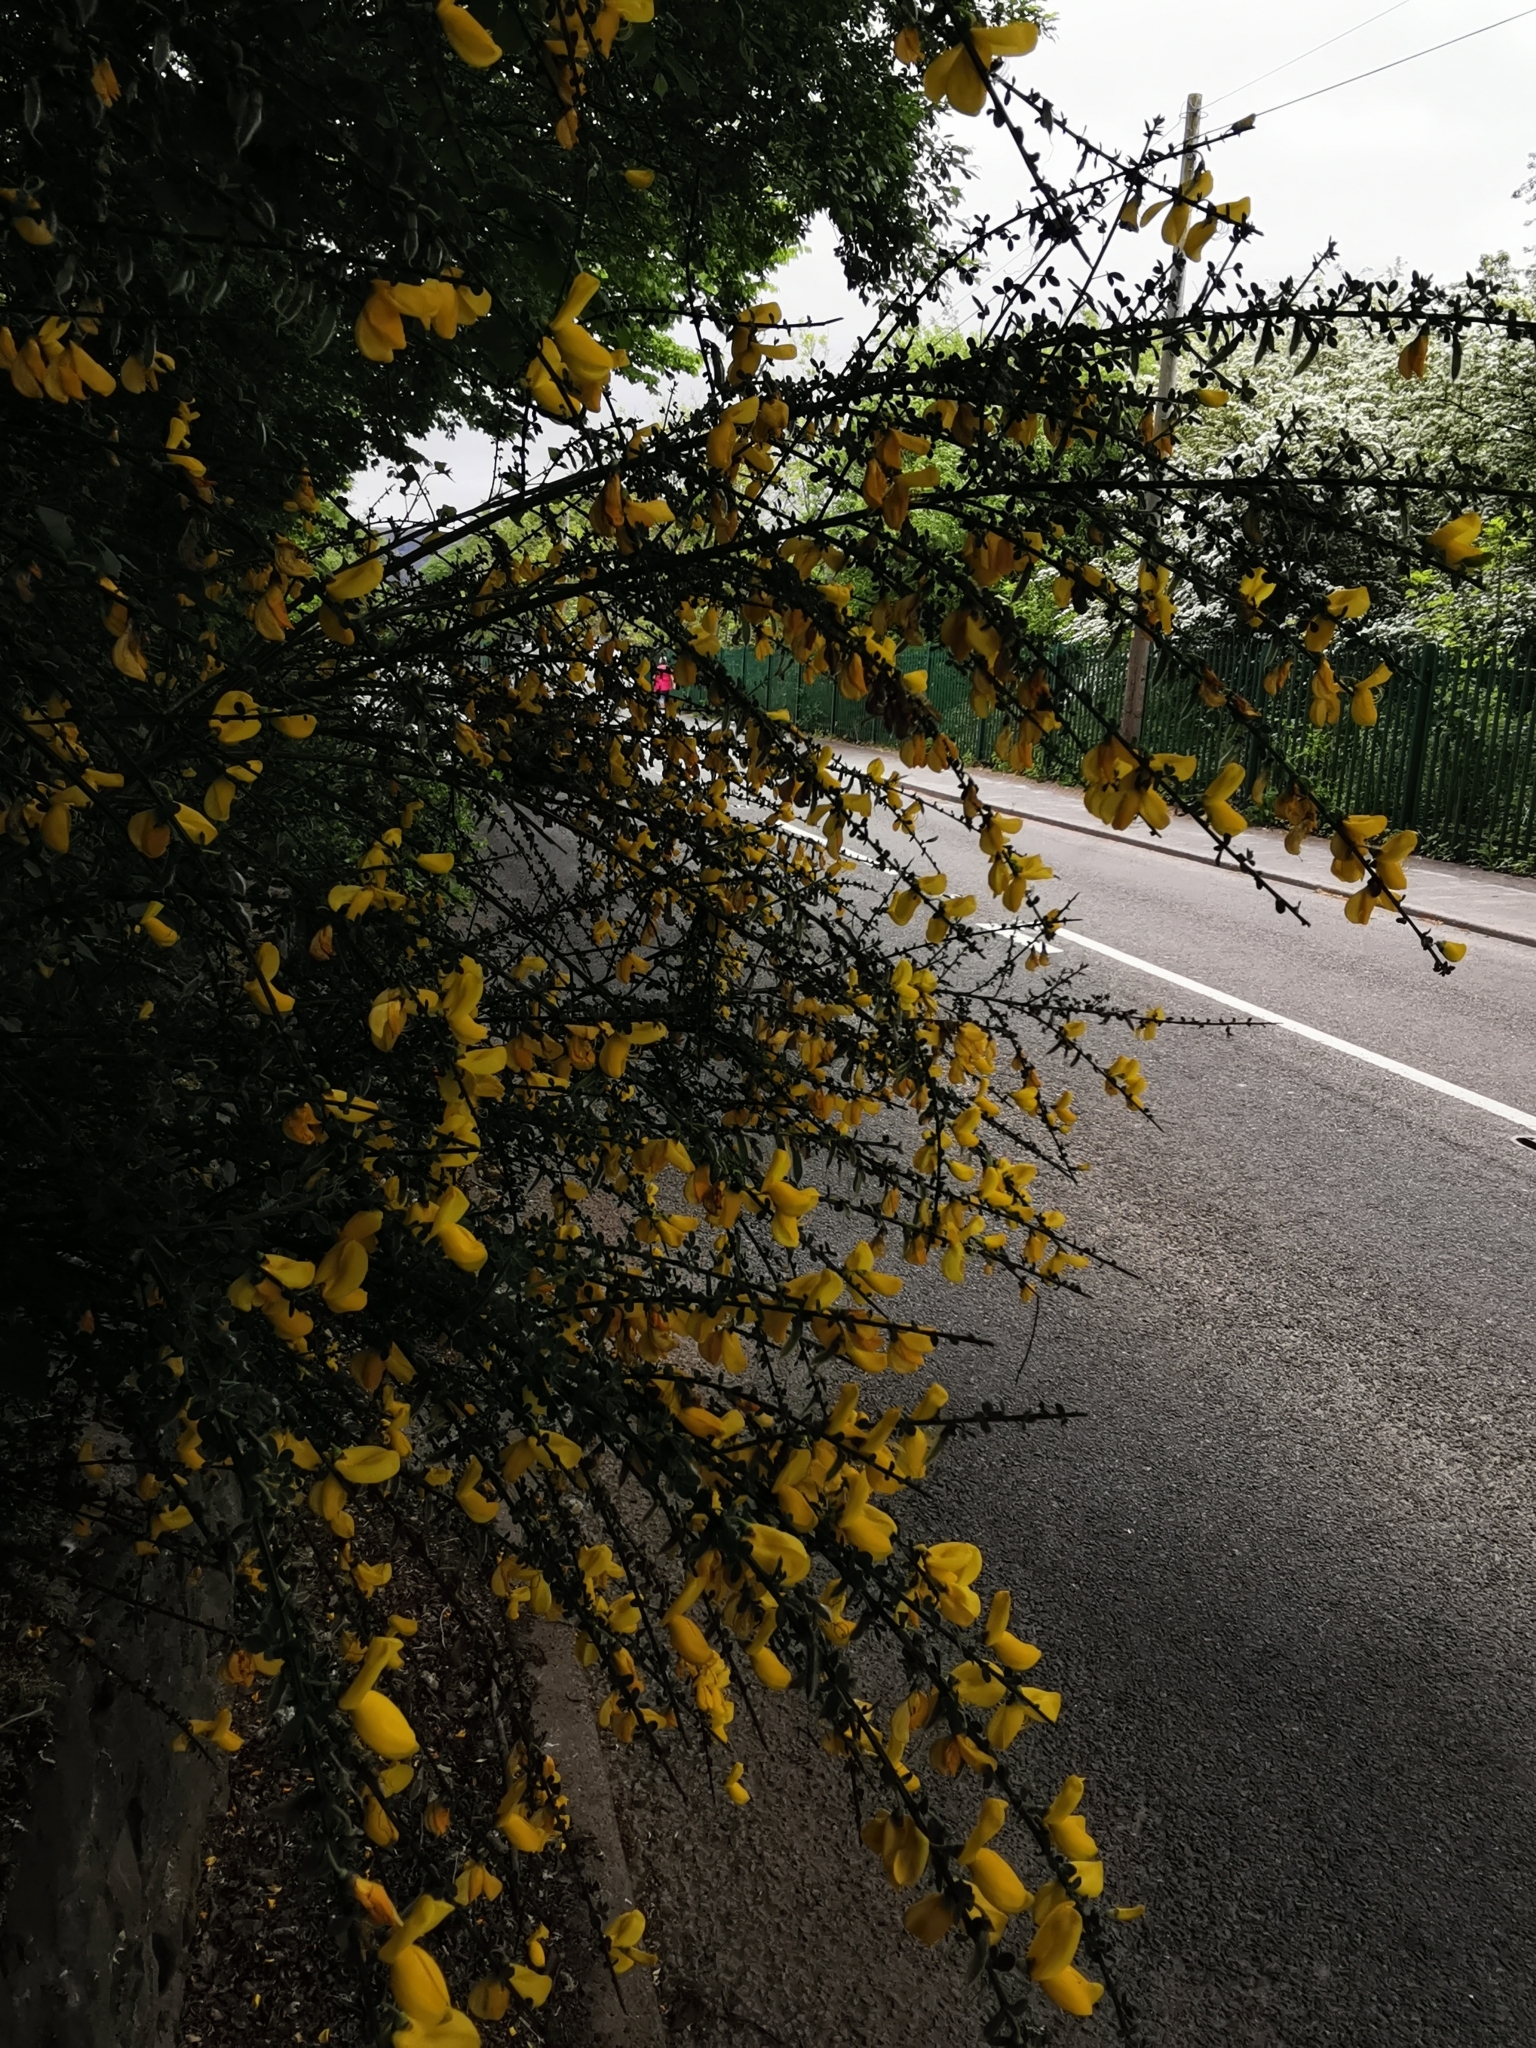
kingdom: Plantae
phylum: Tracheophyta
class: Magnoliopsida
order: Fabales
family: Fabaceae
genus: Cytisus
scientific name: Cytisus scoparius
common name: Scotch broom
